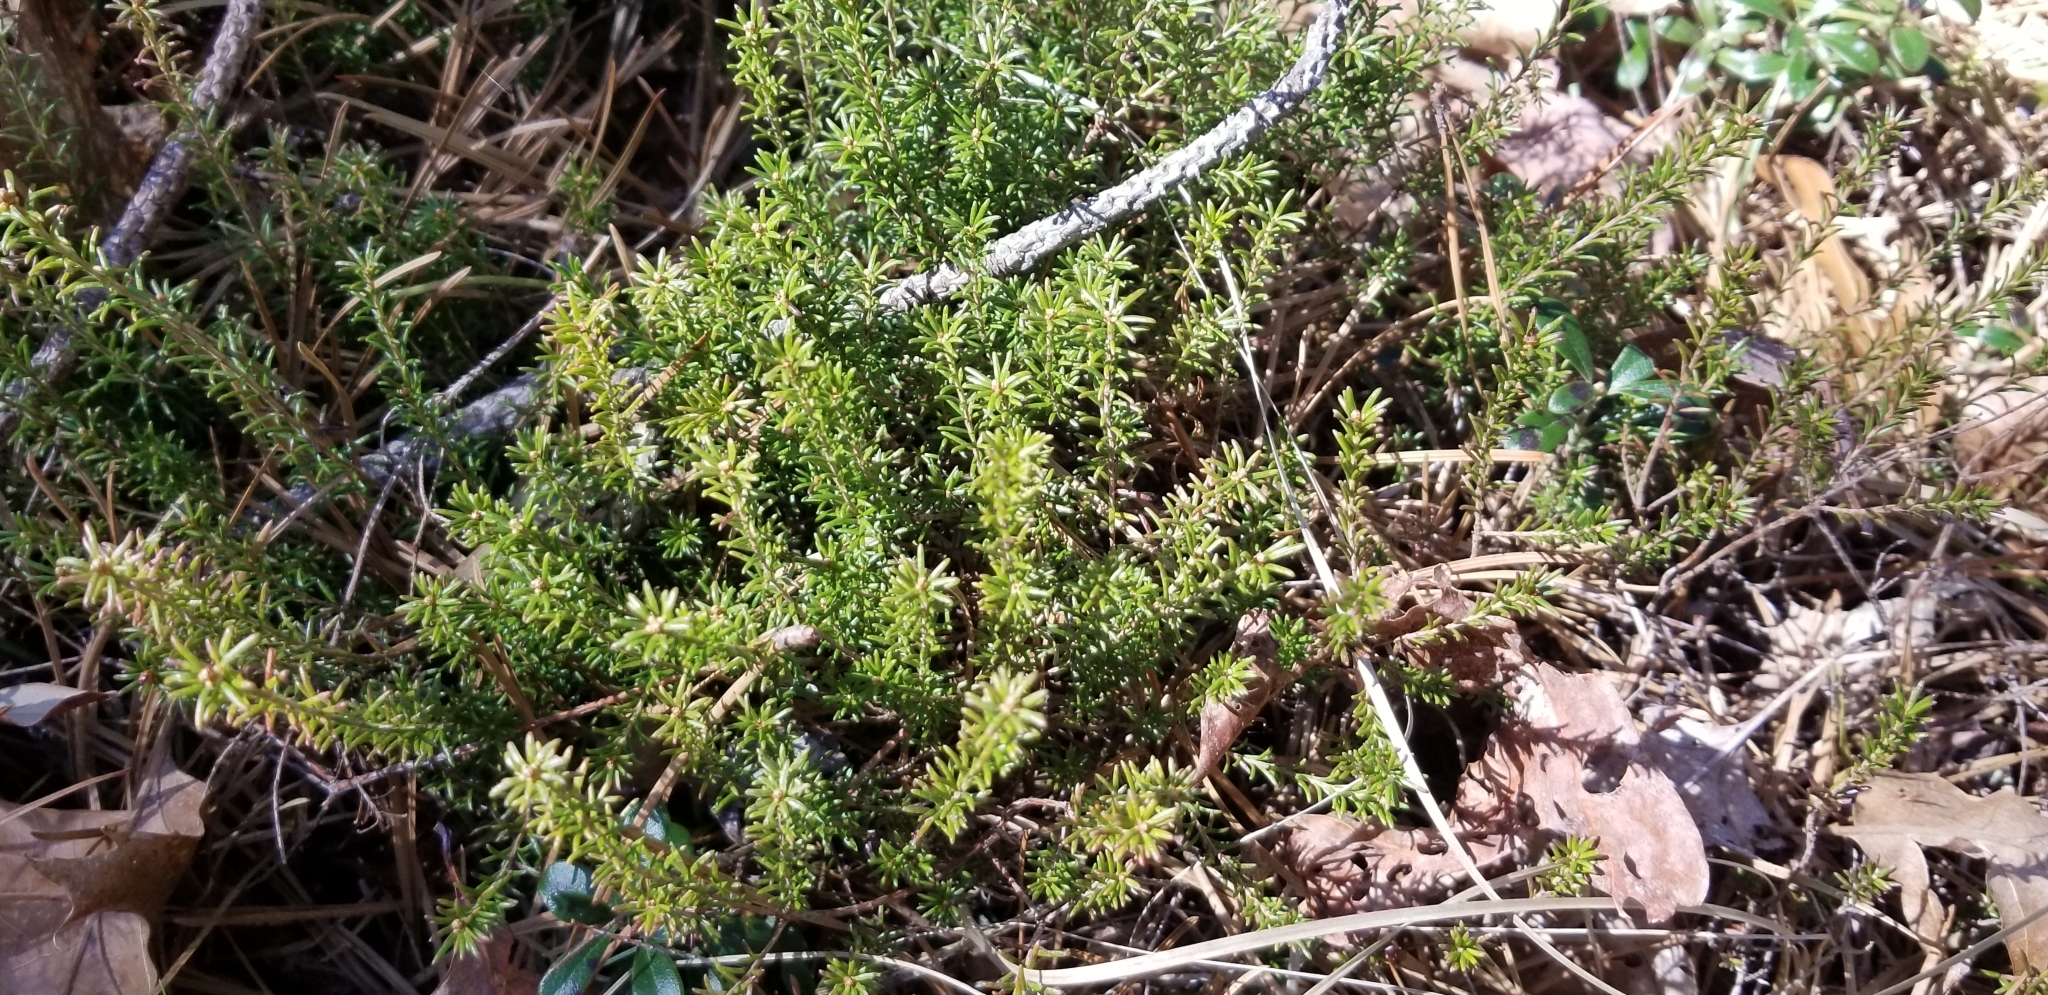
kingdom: Plantae
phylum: Tracheophyta
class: Magnoliopsida
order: Ericales
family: Ericaceae
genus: Corema
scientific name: Corema conradii
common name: Broom-crowberry
